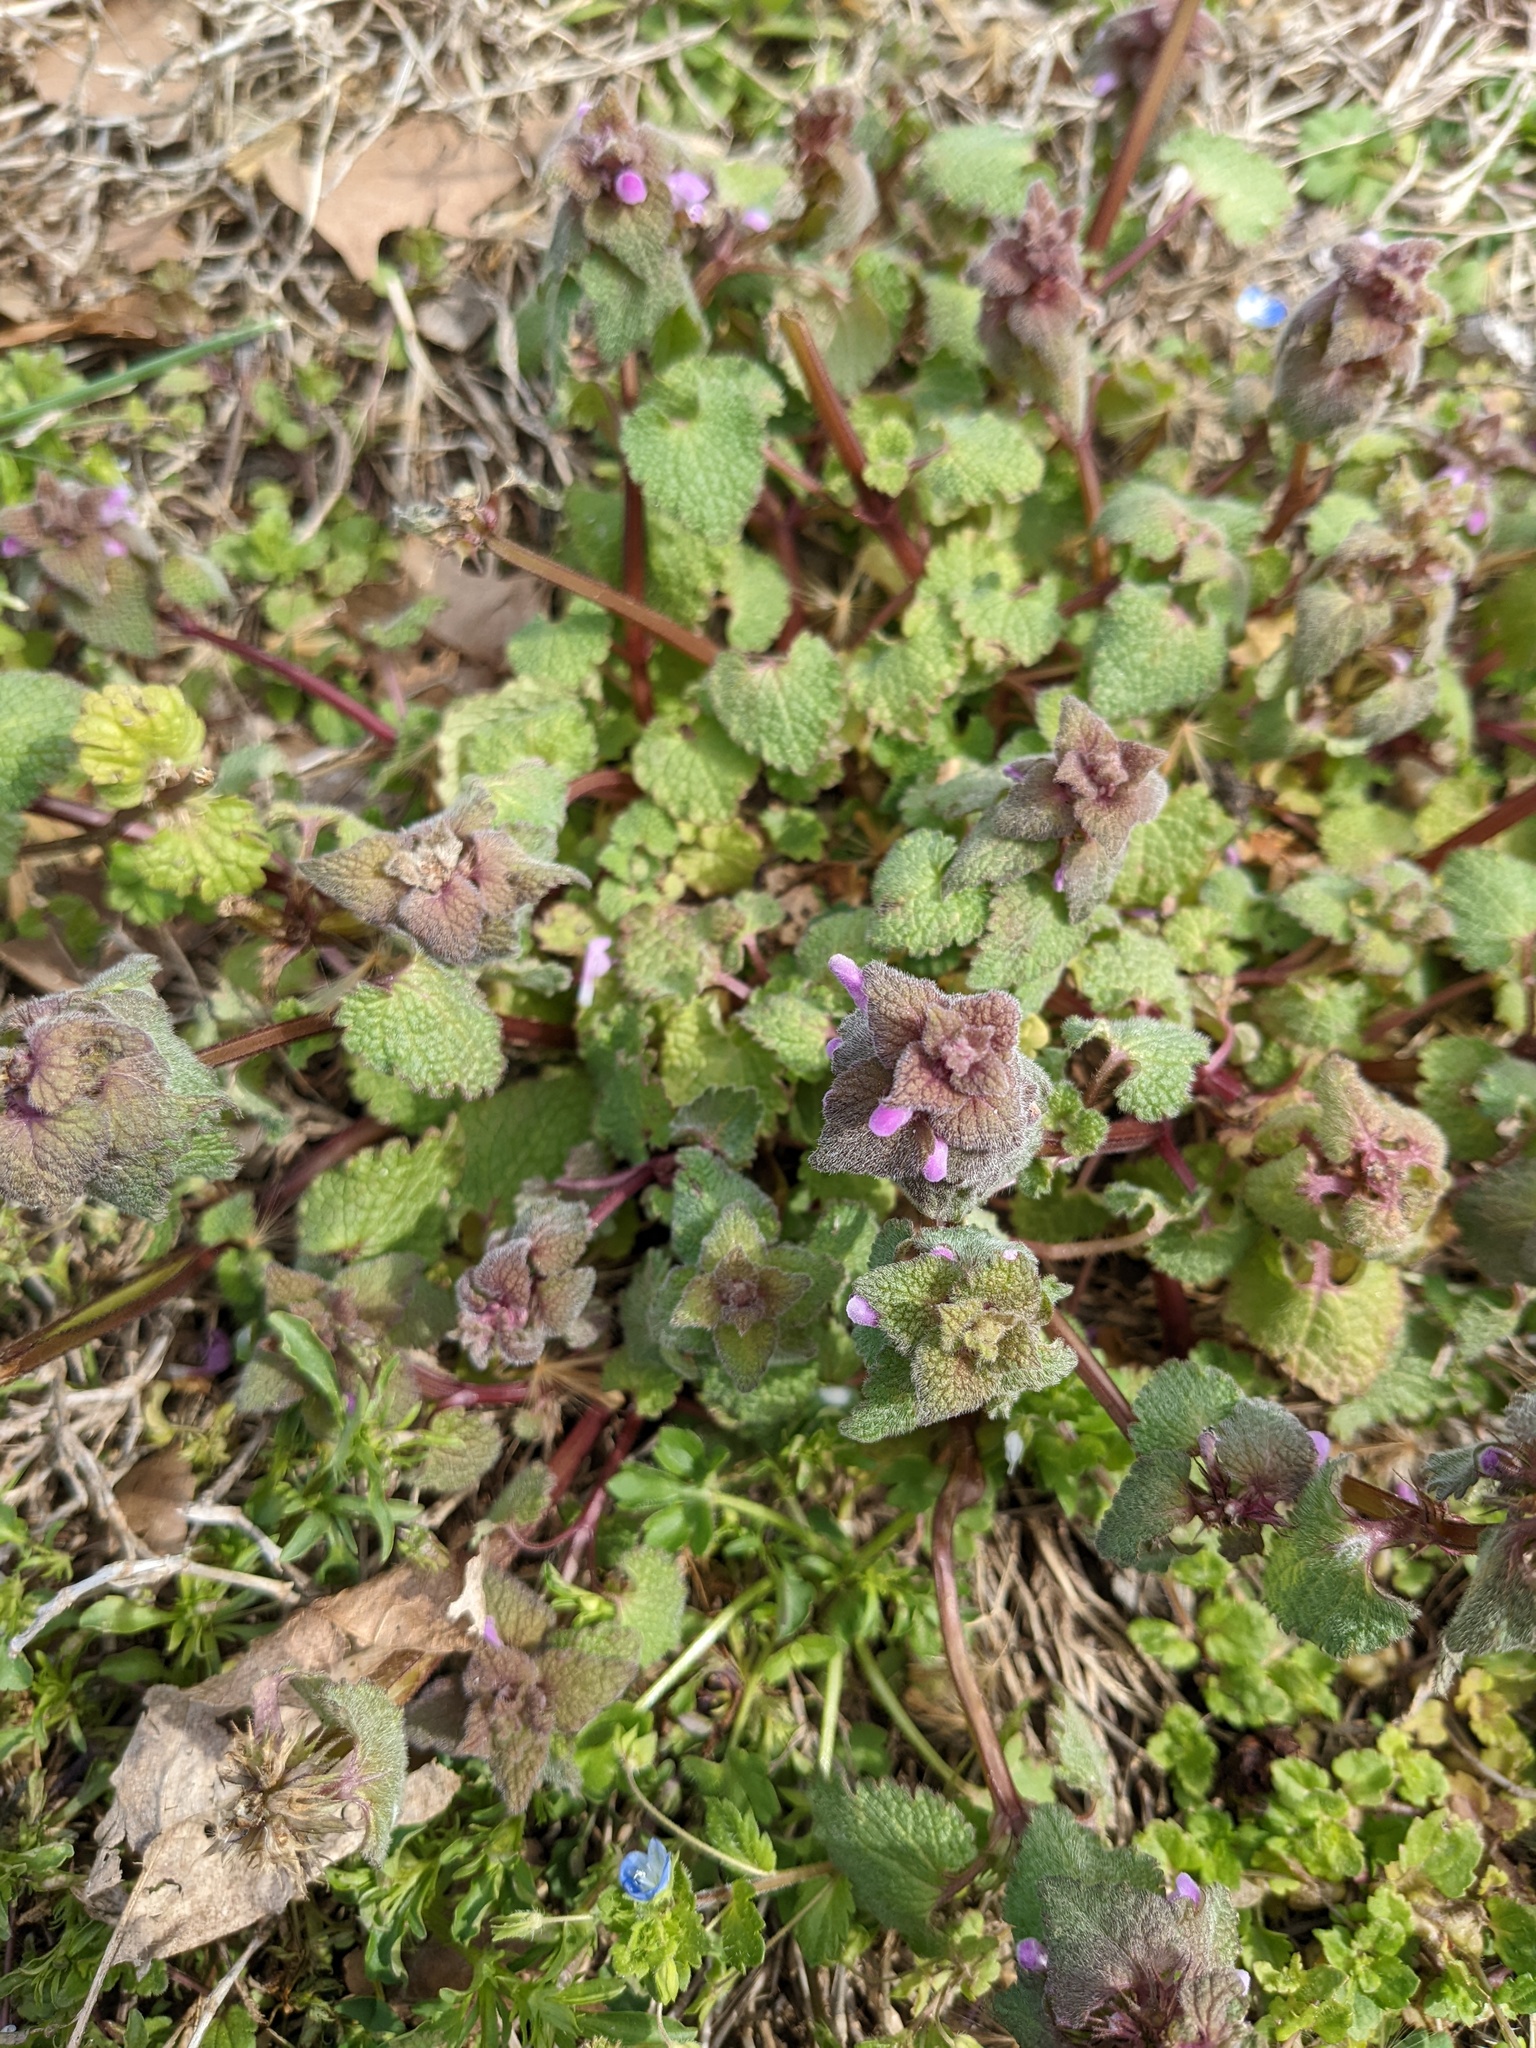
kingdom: Plantae
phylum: Tracheophyta
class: Magnoliopsida
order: Lamiales
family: Lamiaceae
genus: Lamium
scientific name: Lamium purpureum
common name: Red dead-nettle
